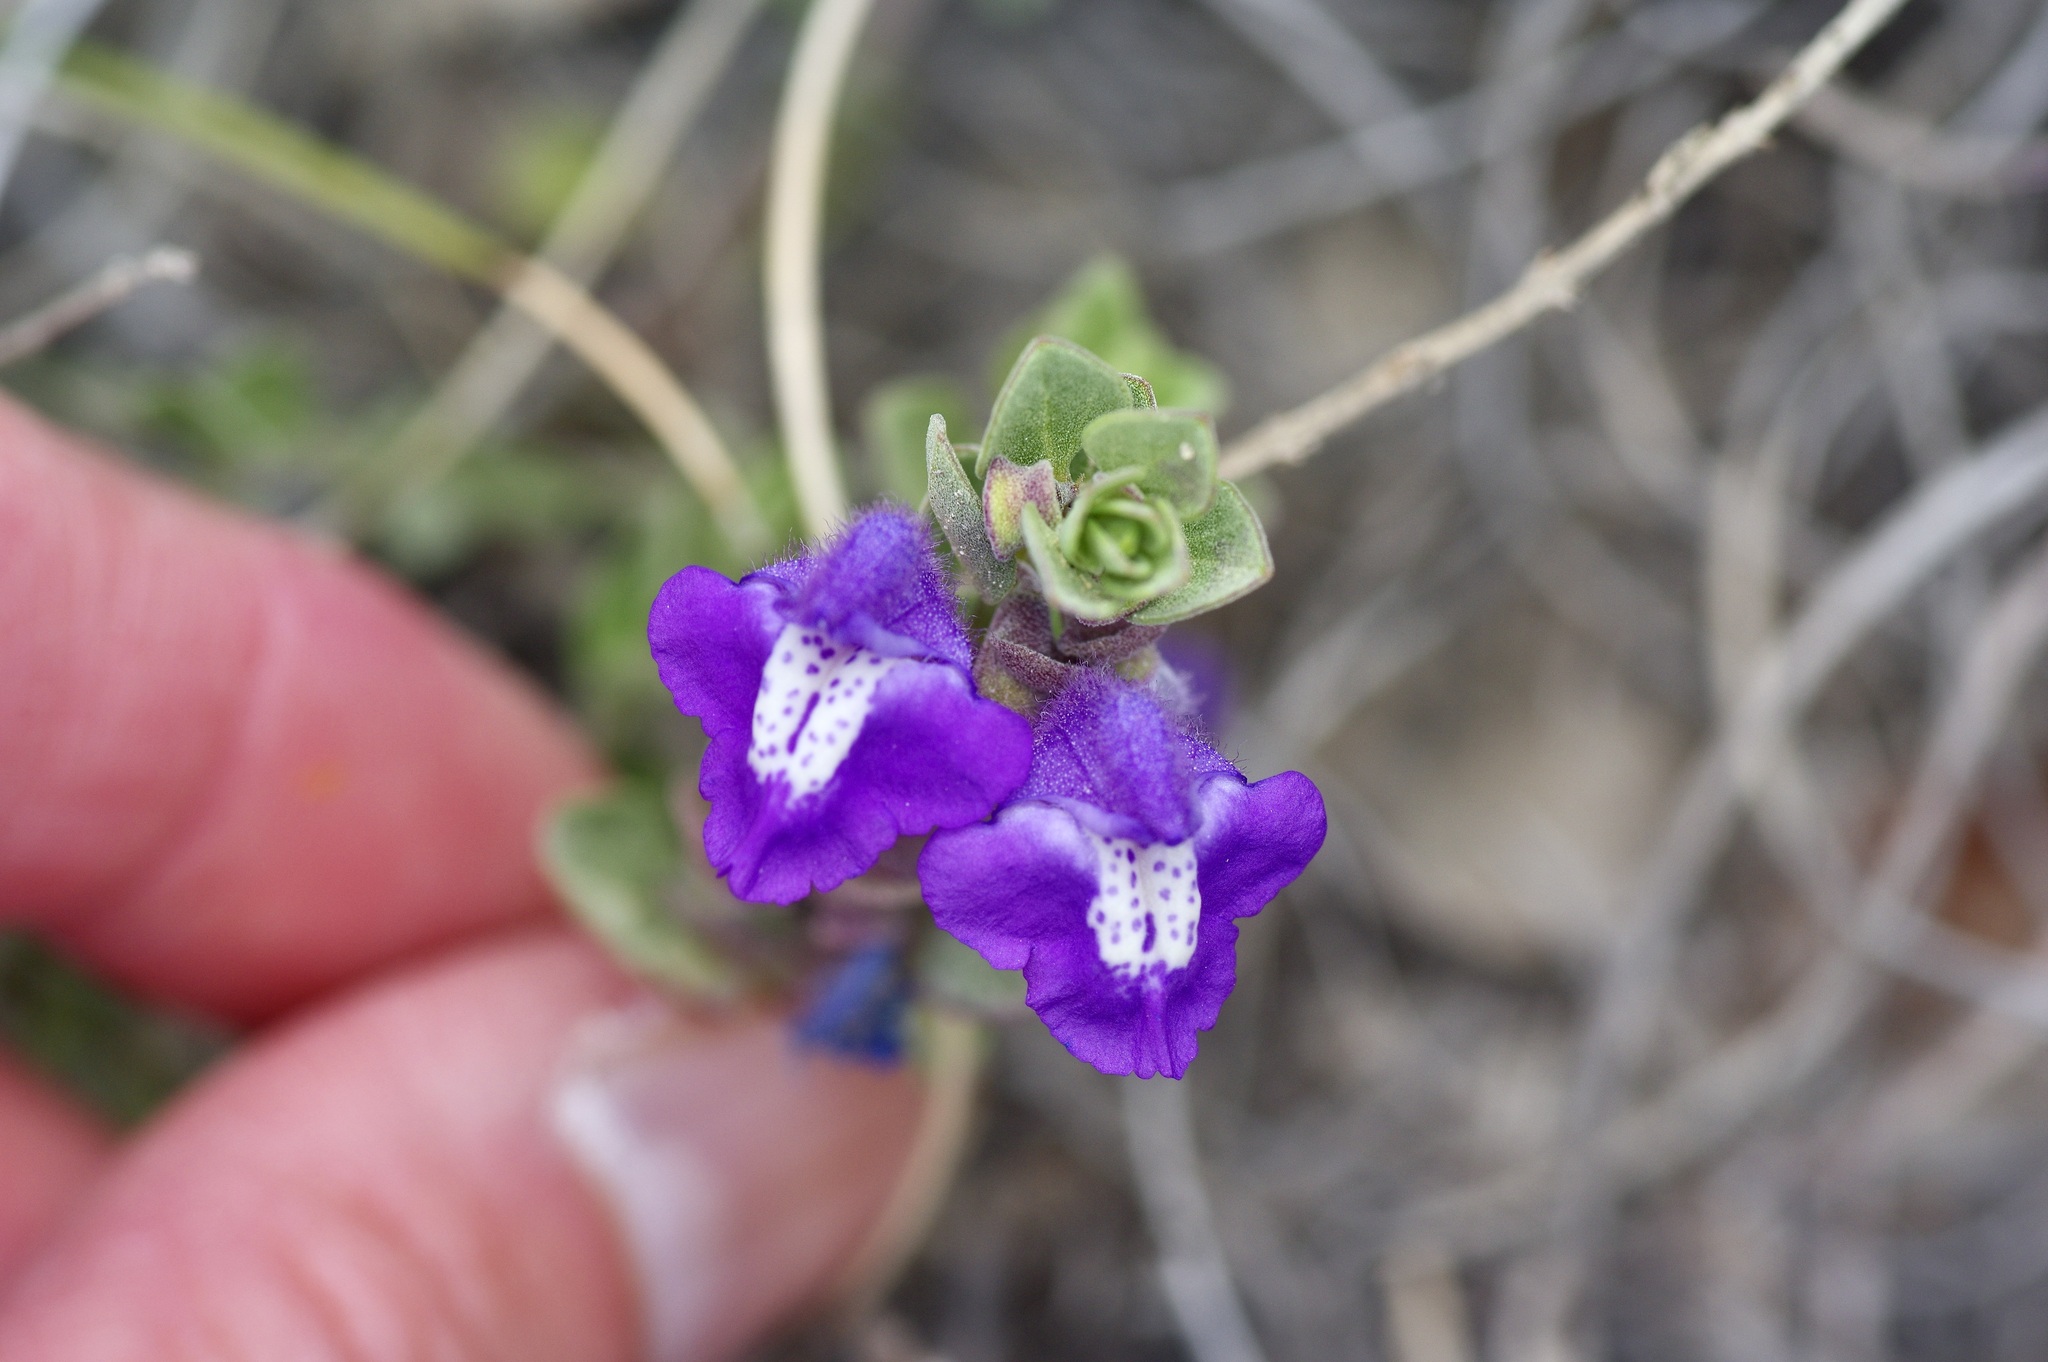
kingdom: Plantae
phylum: Tracheophyta
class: Magnoliopsida
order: Lamiales
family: Lamiaceae
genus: Scutellaria
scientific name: Scutellaria drummondii
